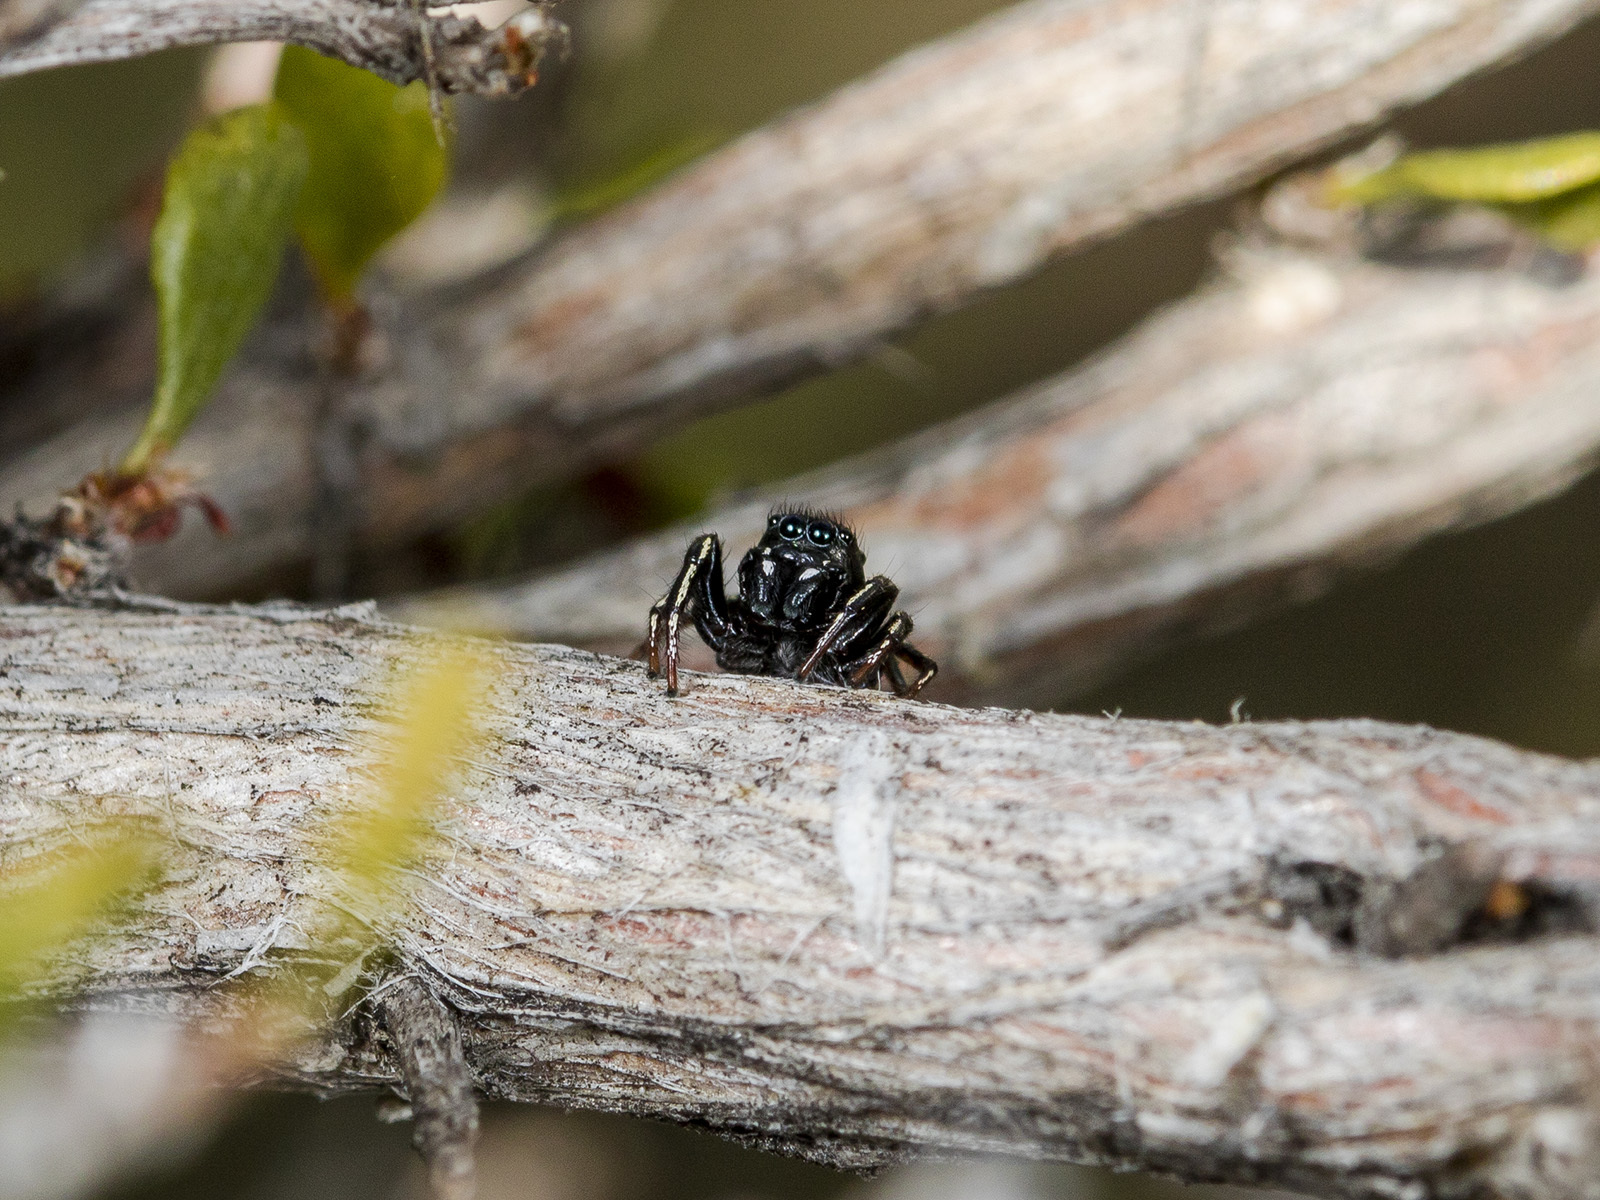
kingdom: Animalia
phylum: Arthropoda
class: Arachnida
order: Araneae
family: Salticidae
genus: Heliophanus
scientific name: Heliophanus chovdensis
